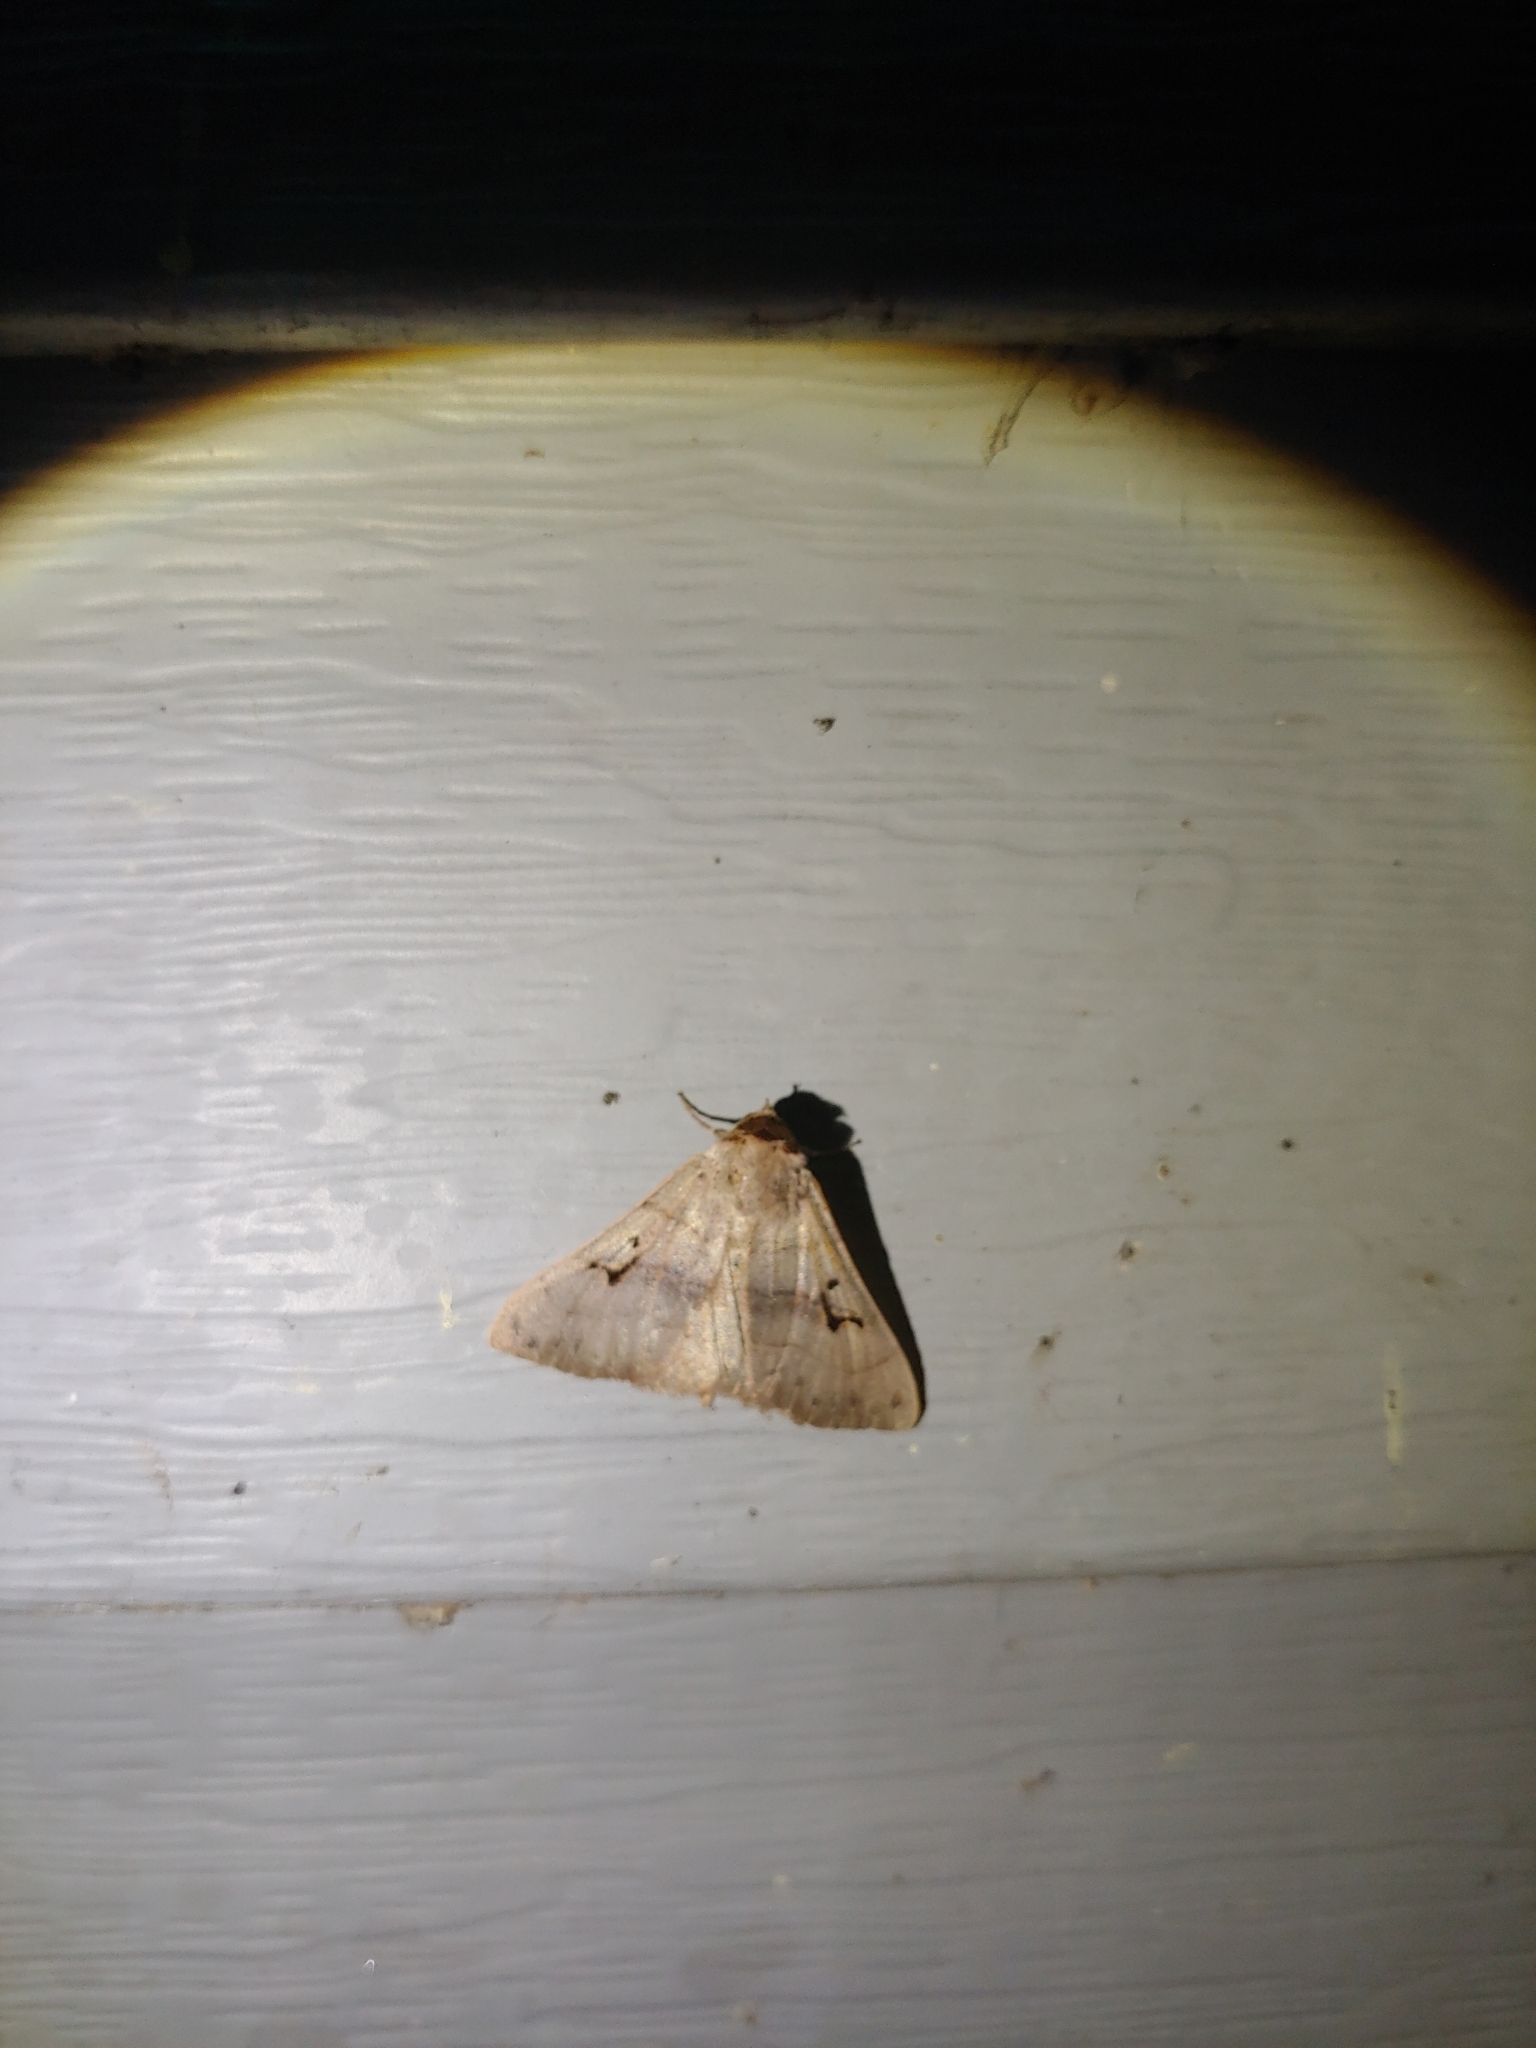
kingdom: Animalia
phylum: Arthropoda
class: Insecta
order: Lepidoptera
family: Erebidae
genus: Panopoda
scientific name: Panopoda carneicosta
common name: Brown panopoda moth
